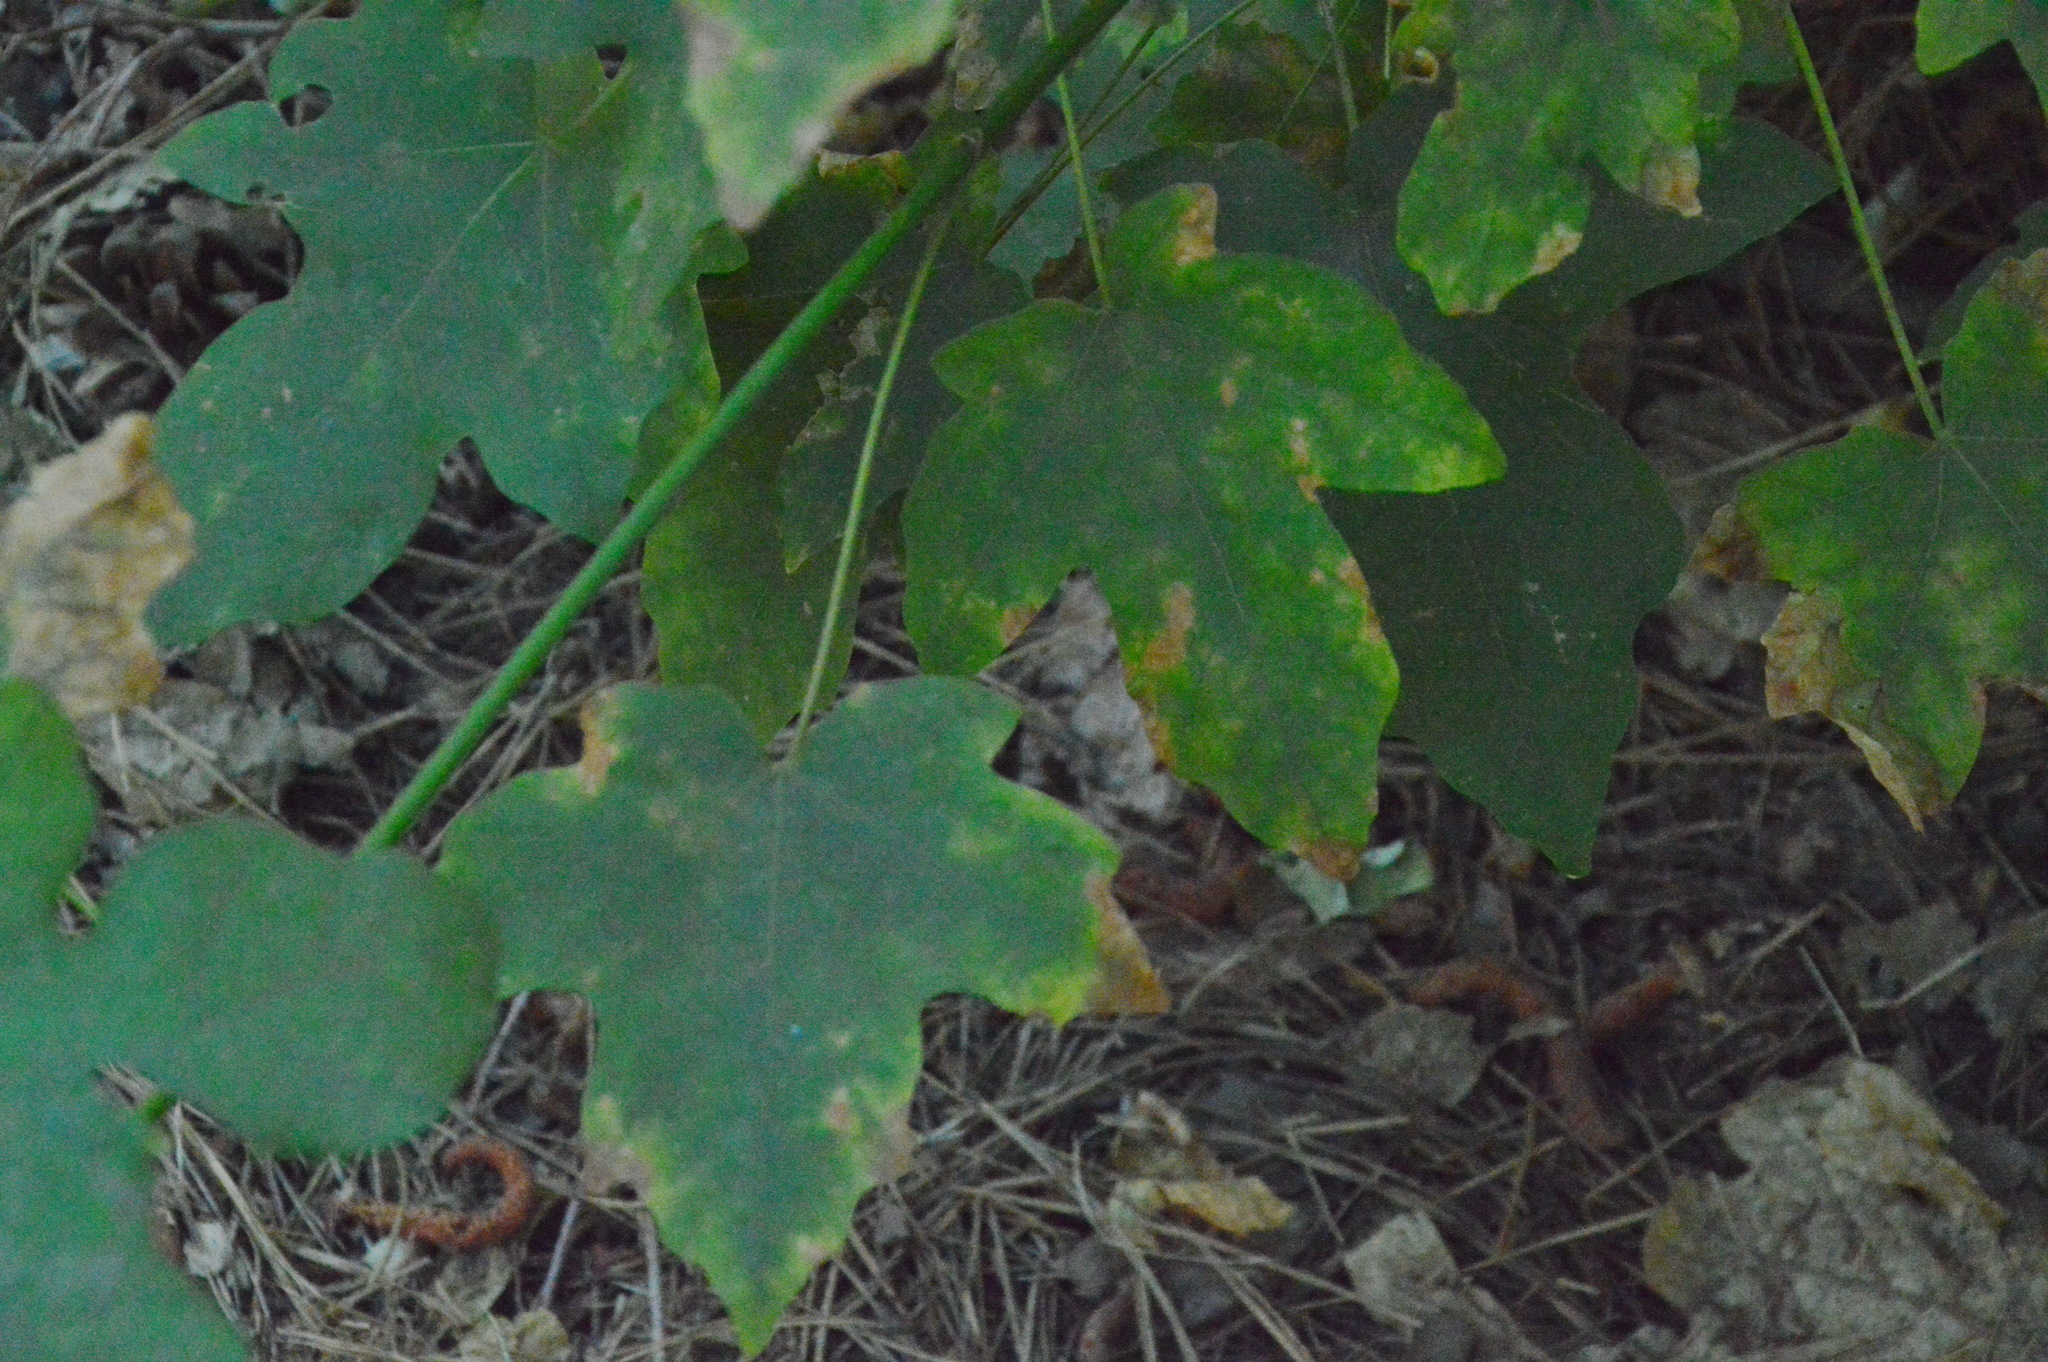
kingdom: Plantae
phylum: Tracheophyta
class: Magnoliopsida
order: Sapindales
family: Sapindaceae
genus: Acer
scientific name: Acer macrophyllum
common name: Oregon maple
